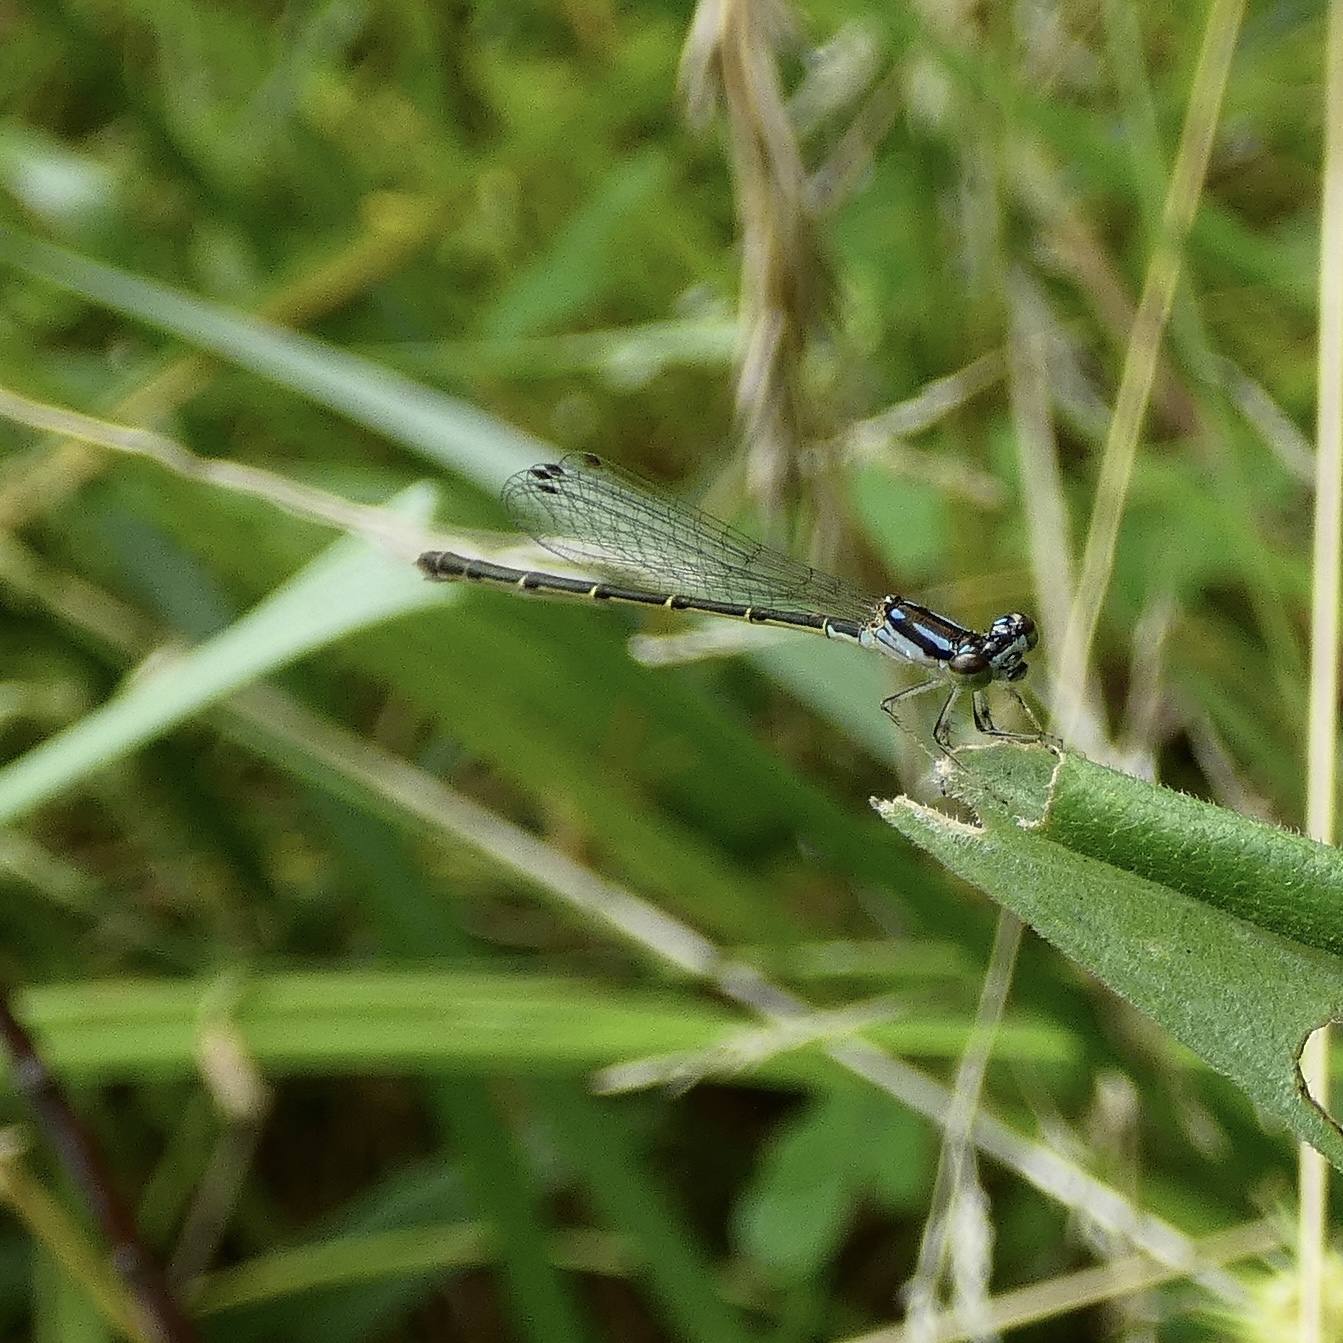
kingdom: Animalia
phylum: Arthropoda
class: Insecta
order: Odonata
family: Coenagrionidae
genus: Ischnura
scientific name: Ischnura posita
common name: Fragile forktail
